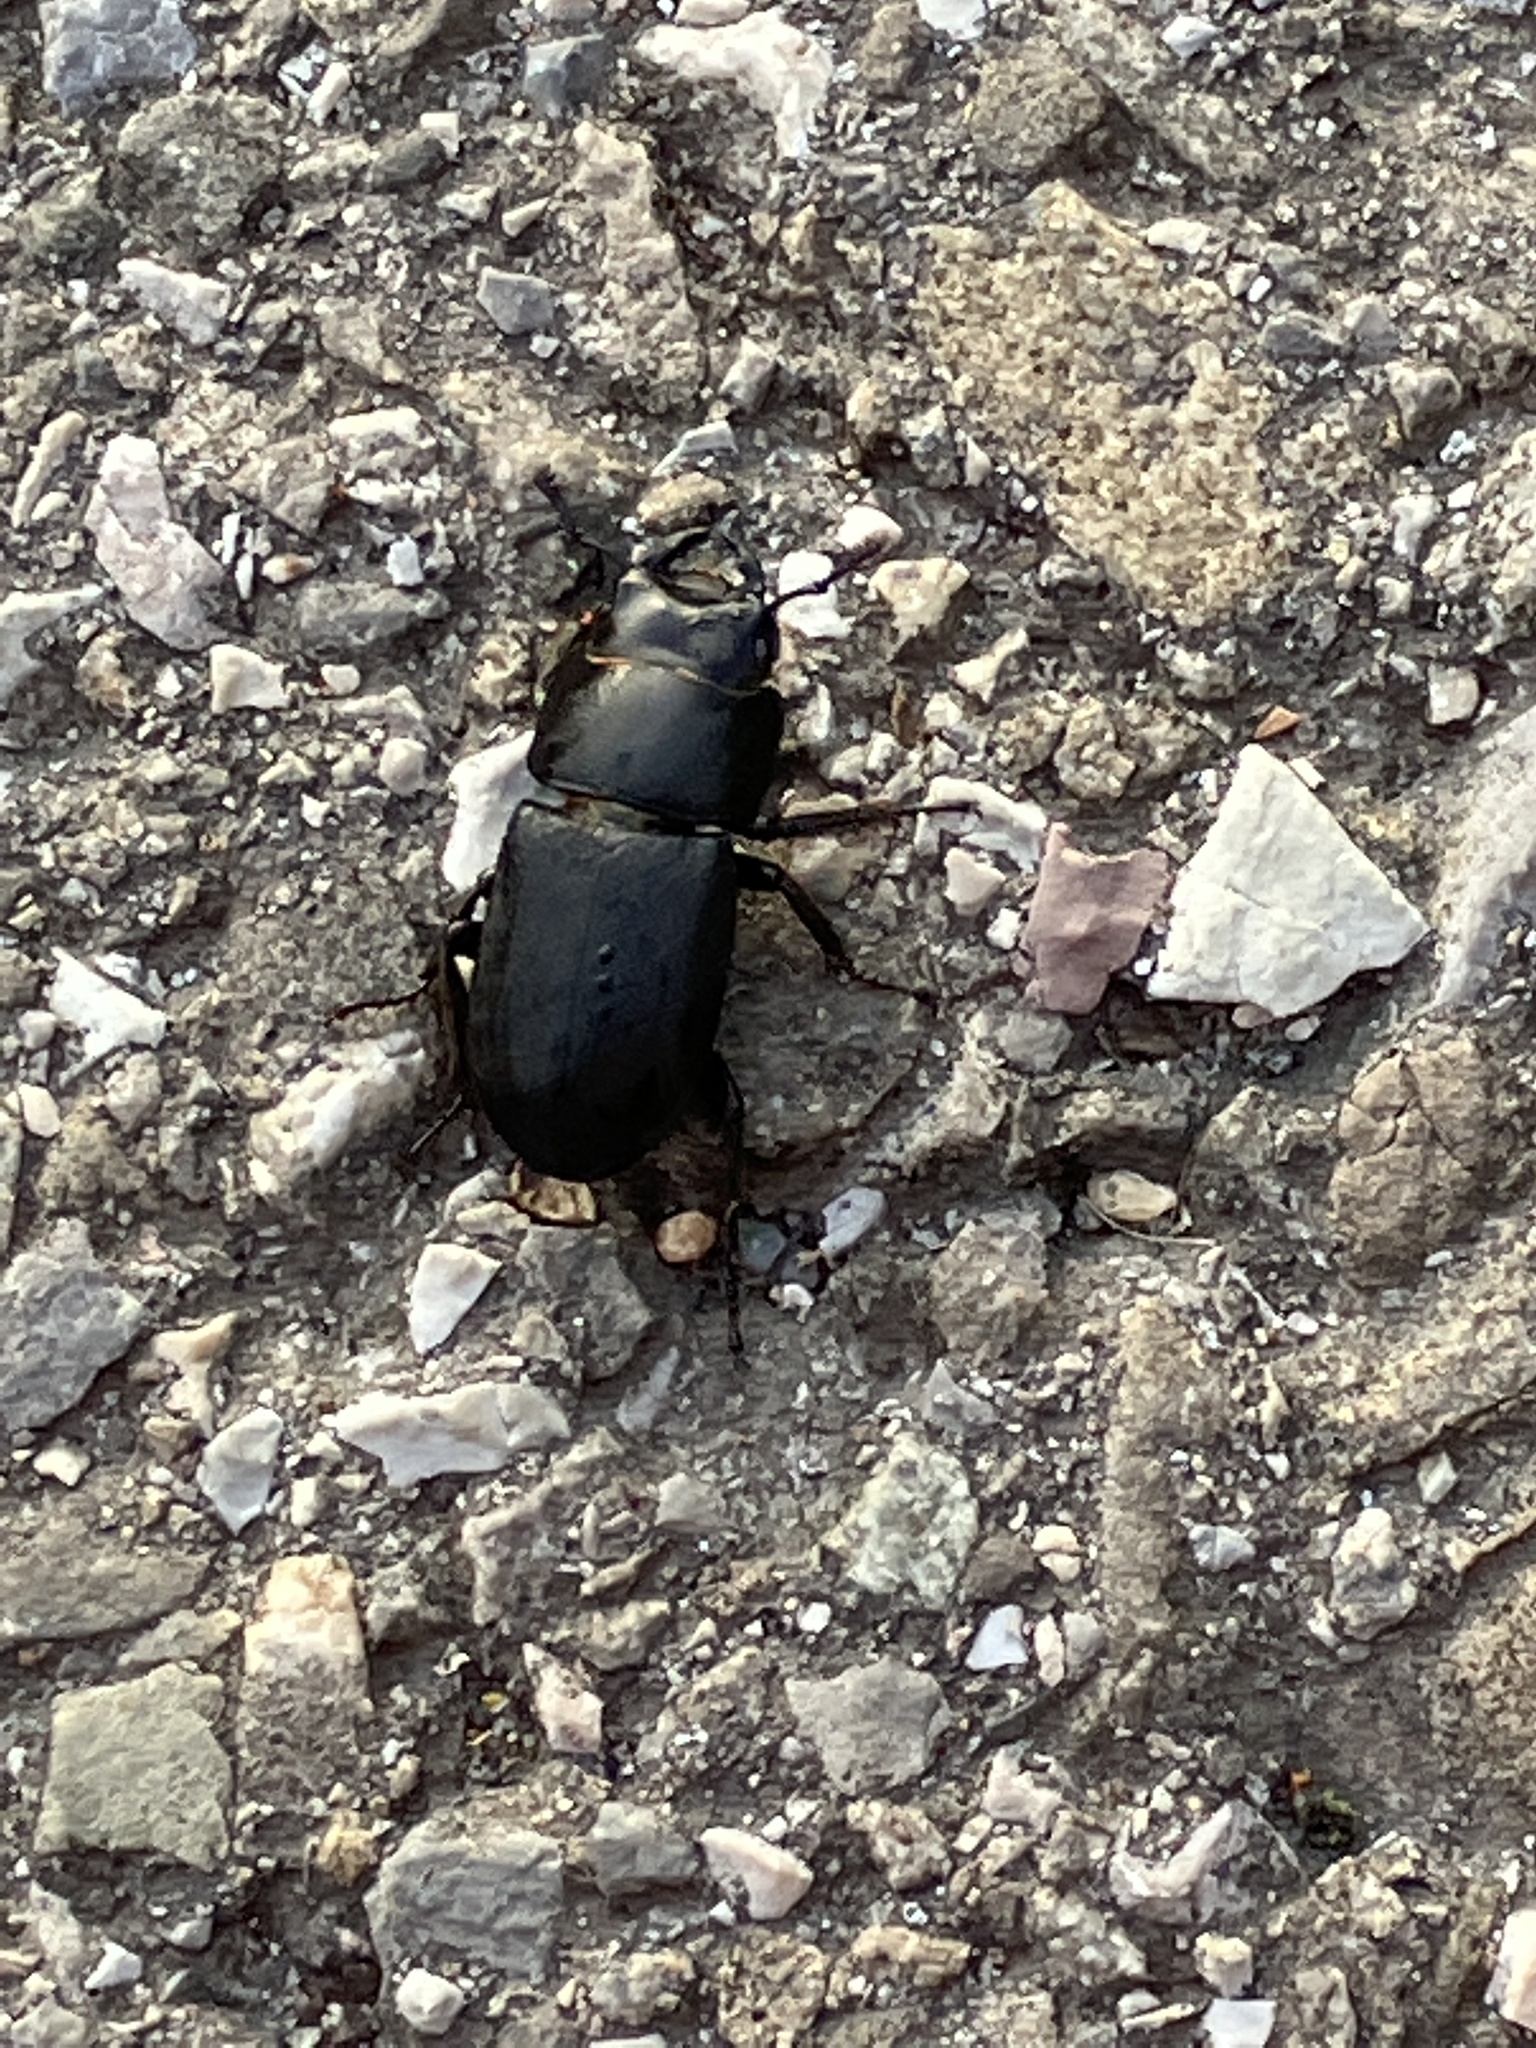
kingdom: Animalia
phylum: Arthropoda
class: Insecta
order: Coleoptera
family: Lucanidae
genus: Dorcus
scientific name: Dorcus parallelipipedus
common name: Lesser stag beetle
